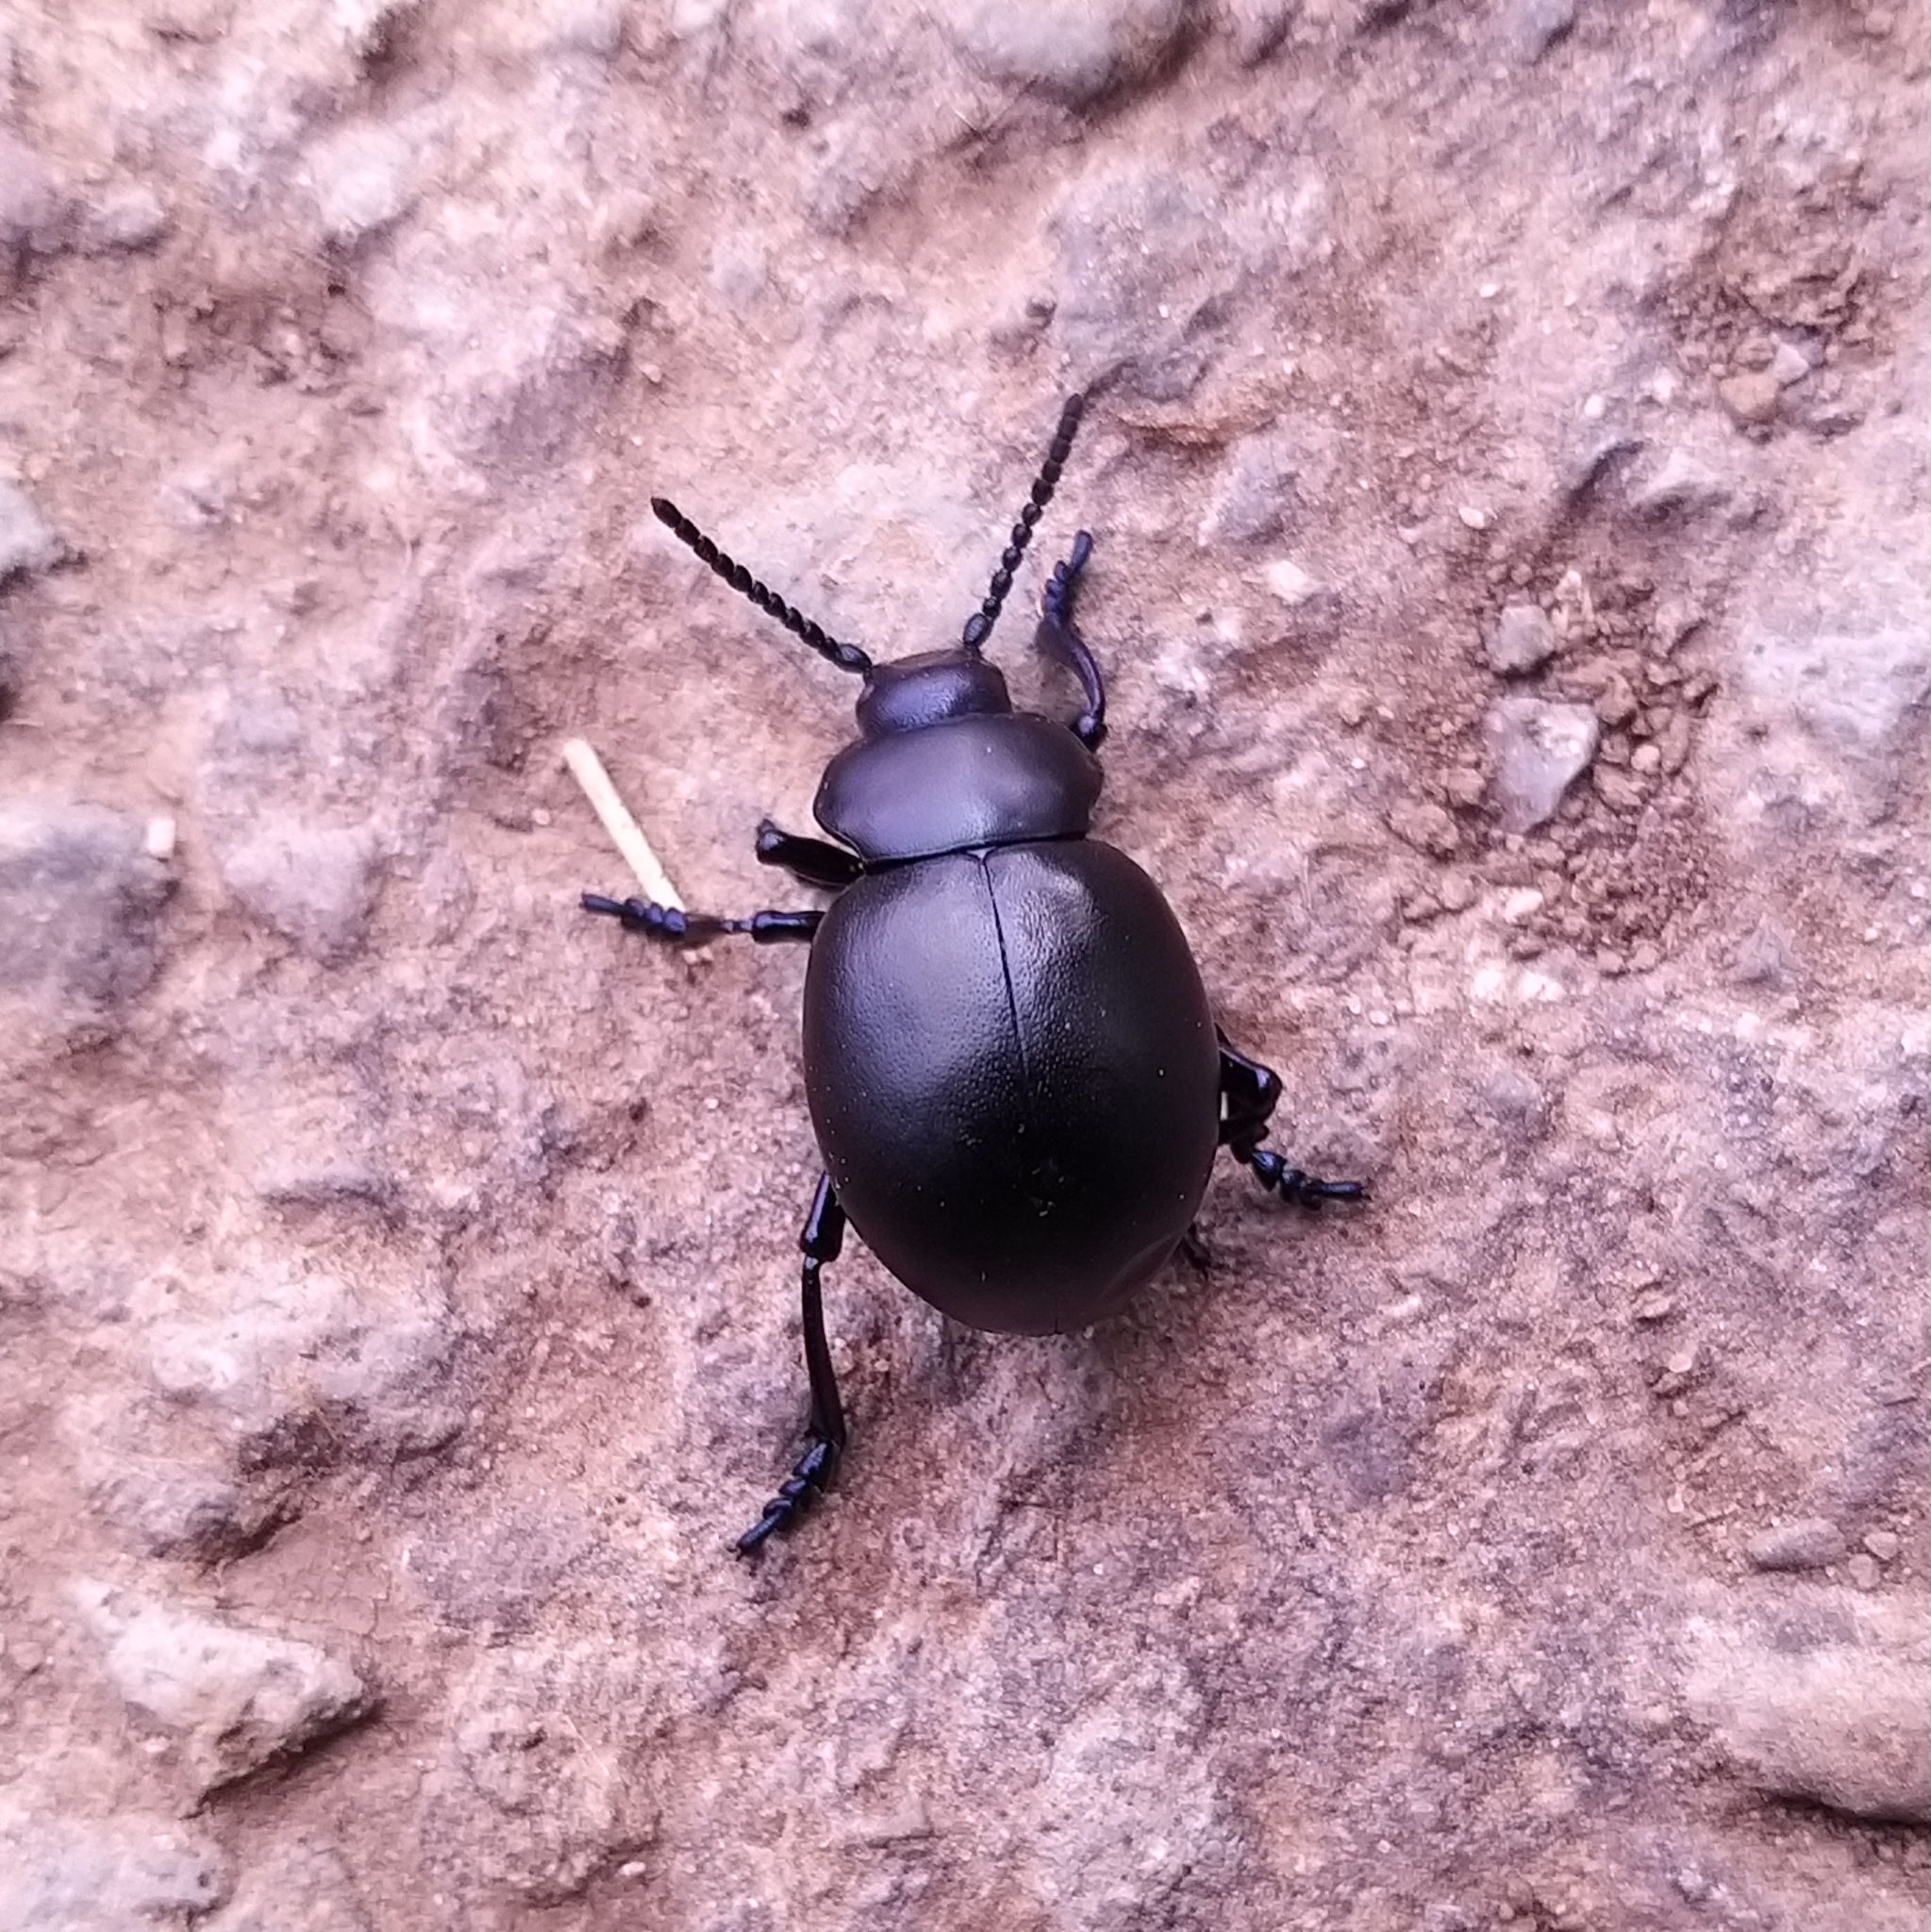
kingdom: Animalia
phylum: Arthropoda
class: Insecta
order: Coleoptera
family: Chrysomelidae
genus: Timarcha
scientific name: Timarcha tenebricosa
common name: Bloody-nosed beetle
